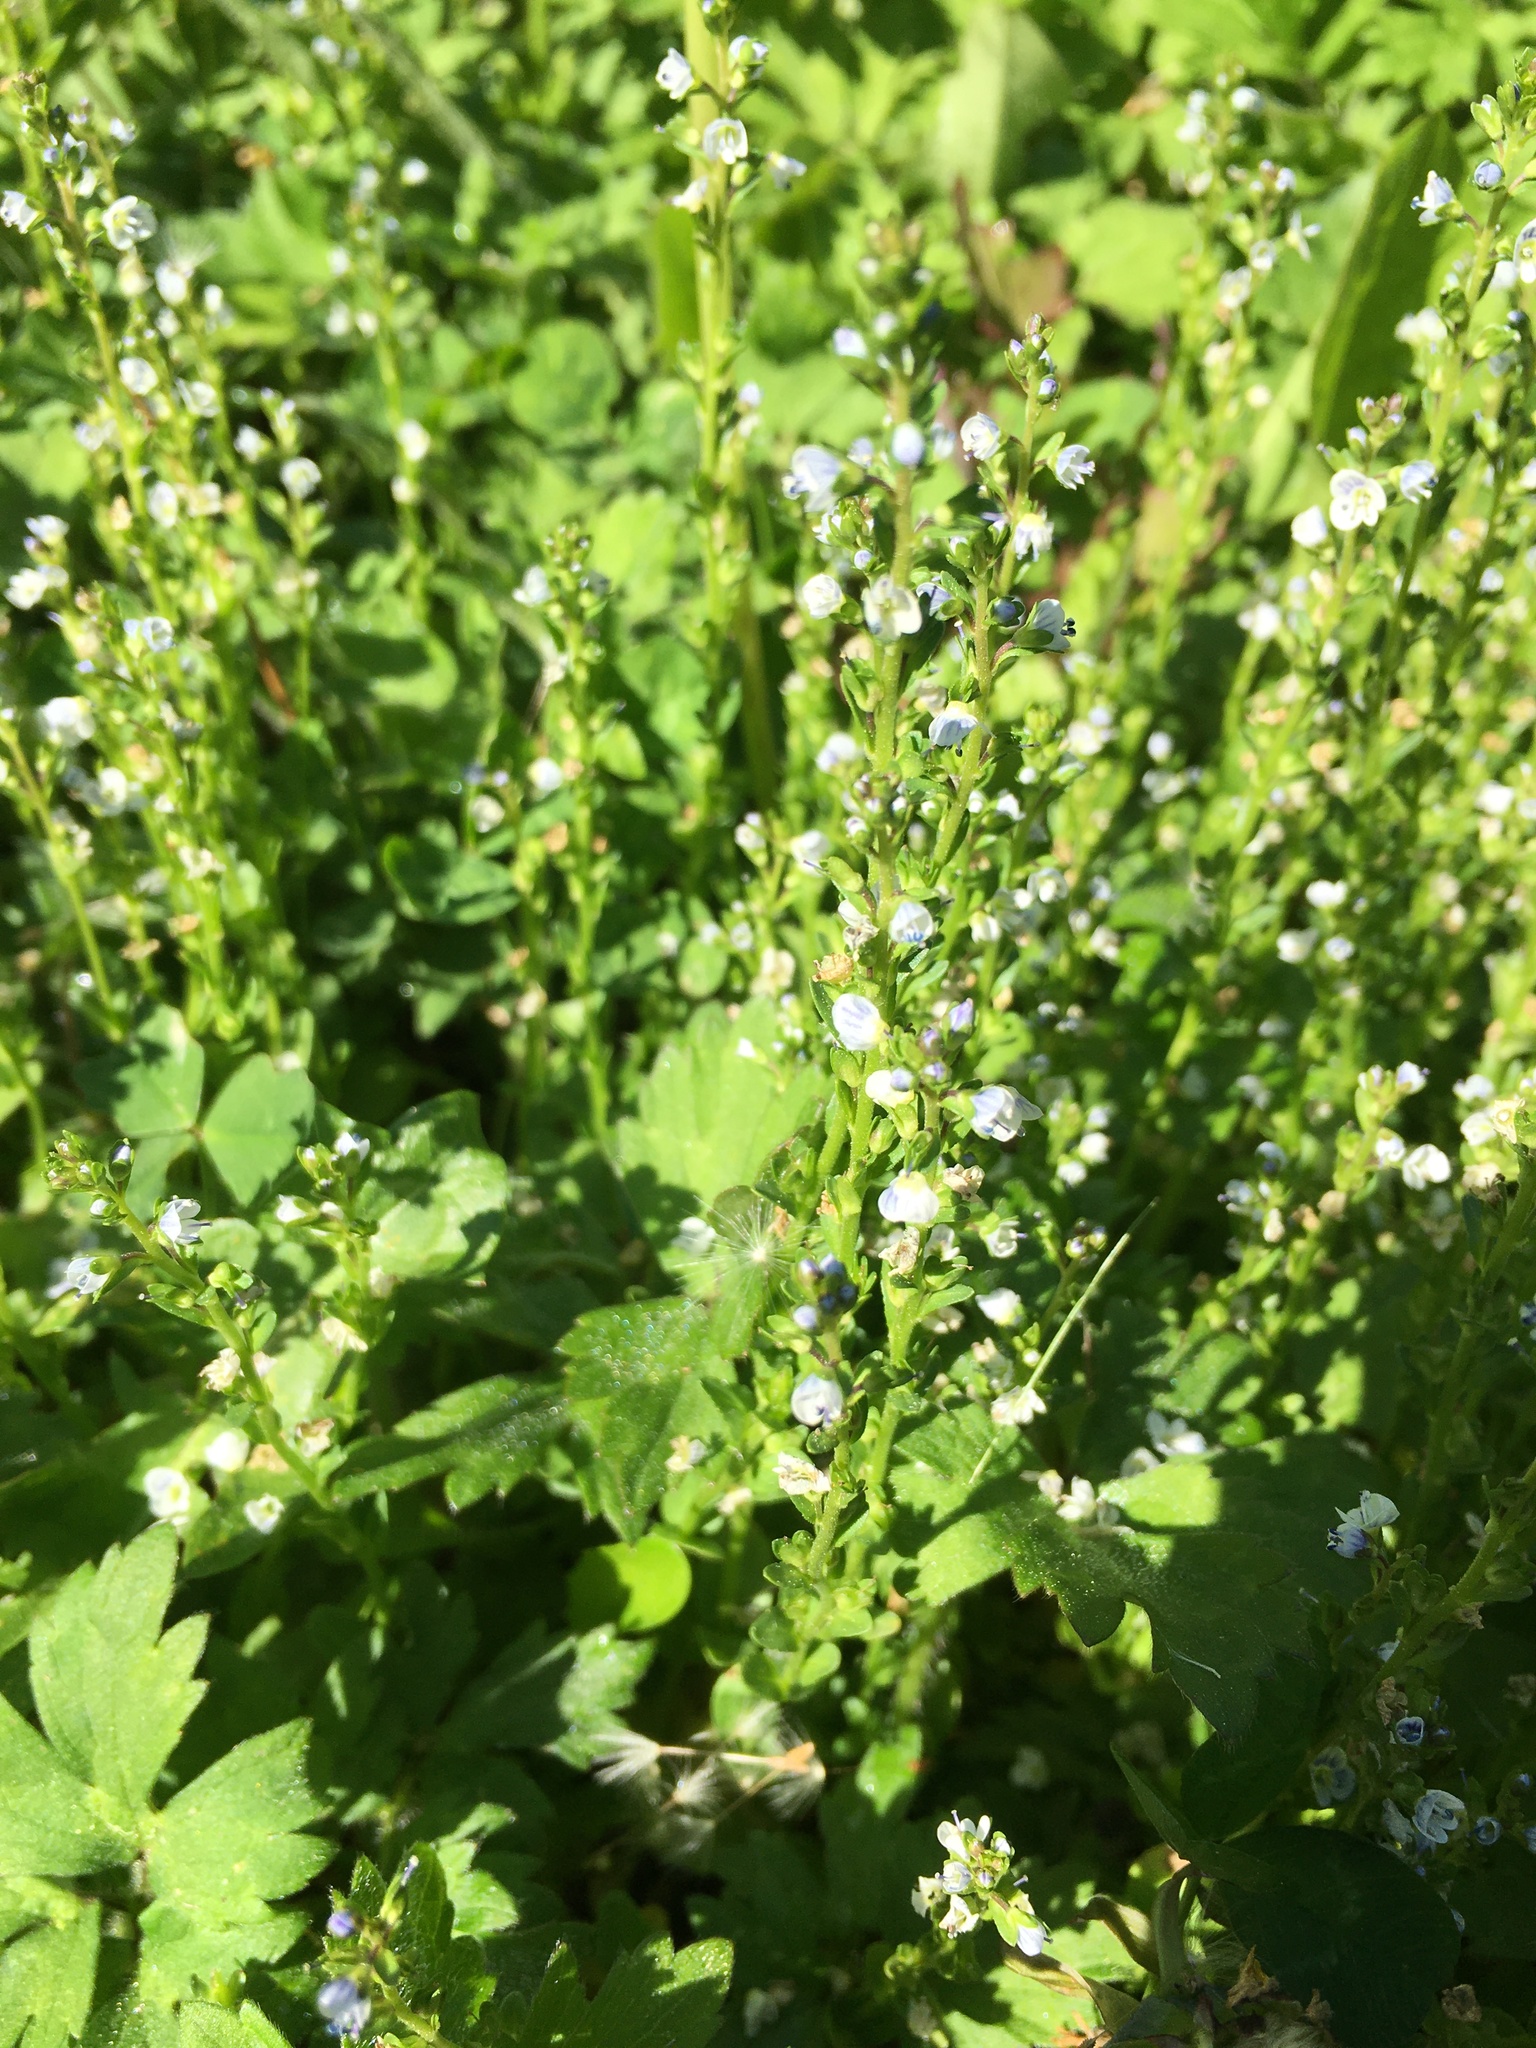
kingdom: Plantae
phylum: Tracheophyta
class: Magnoliopsida
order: Lamiales
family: Plantaginaceae
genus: Veronica
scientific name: Veronica serpyllifolia
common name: Thyme-leaved speedwell
